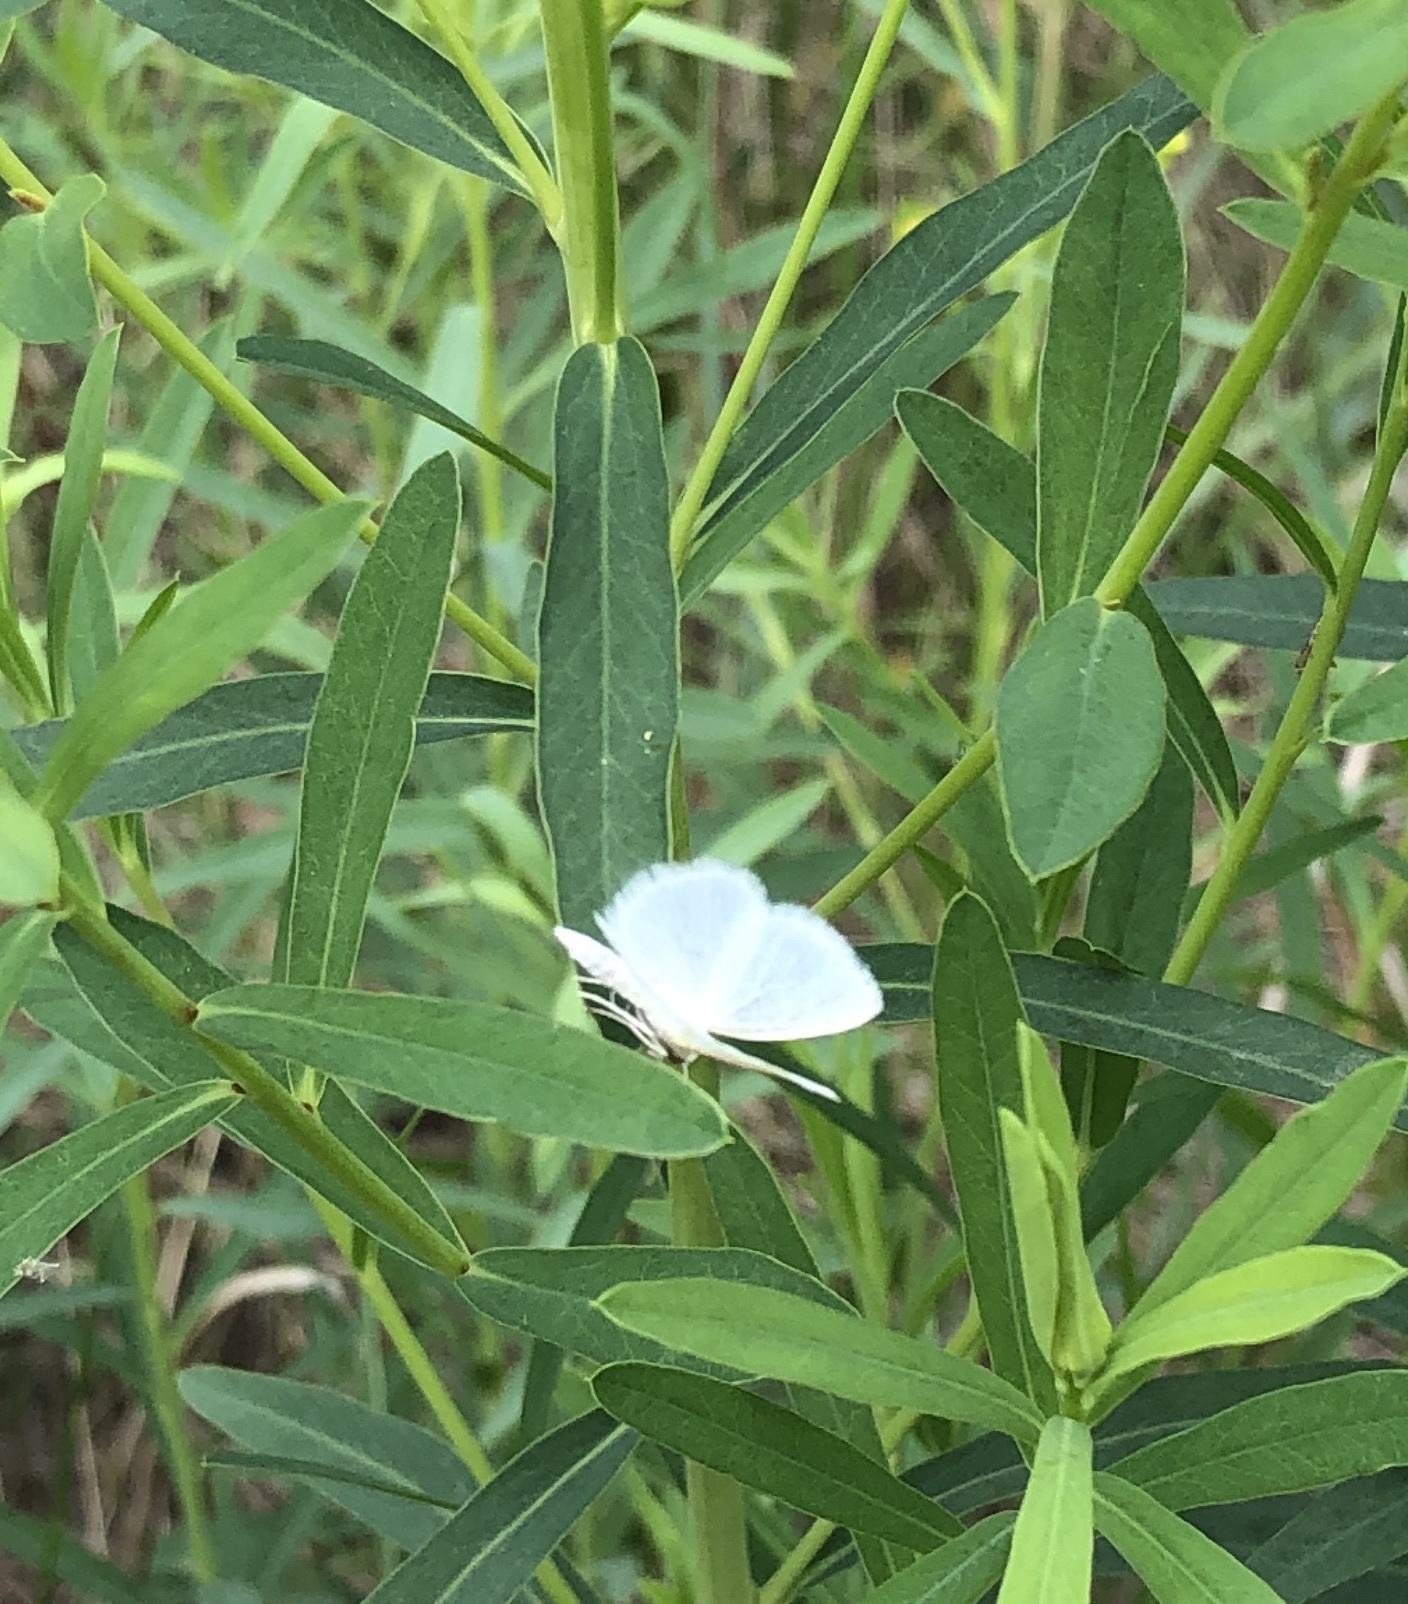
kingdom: Animalia
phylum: Arthropoda
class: Insecta
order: Lepidoptera
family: Geometridae
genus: Lomographa
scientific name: Lomographa vestaliata
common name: White spring moth
